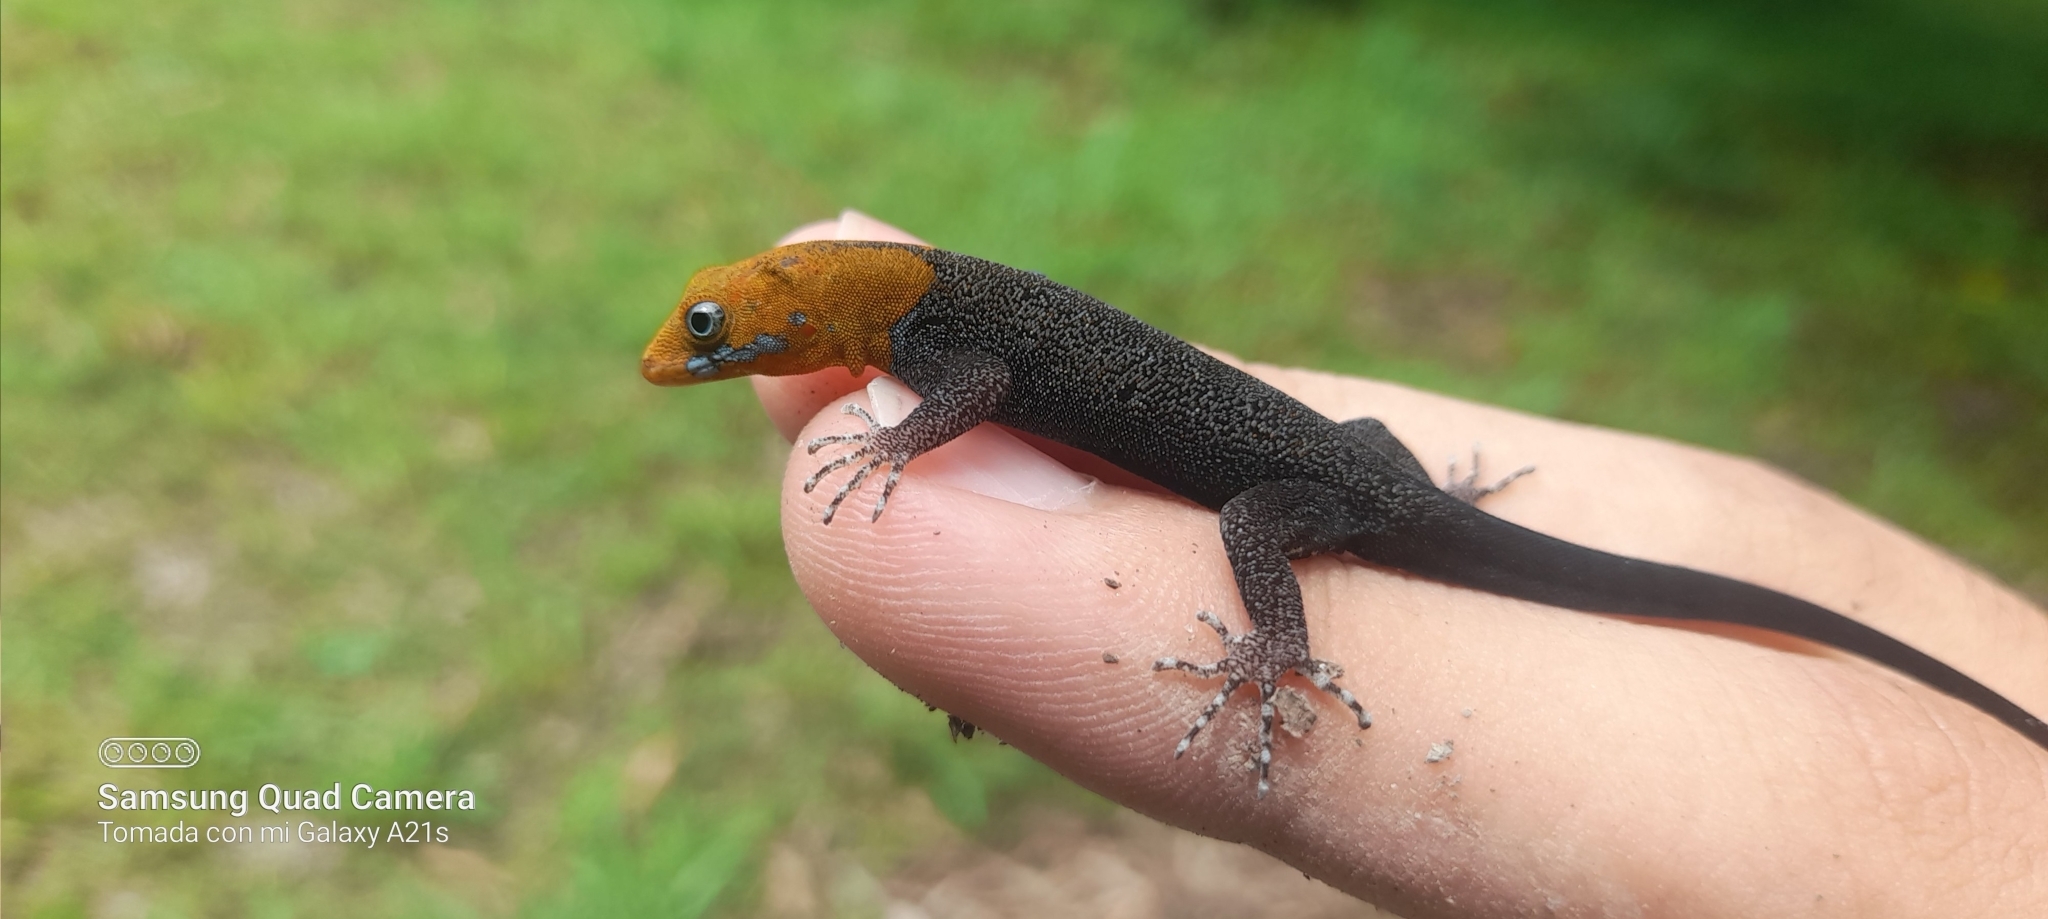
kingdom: Animalia
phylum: Chordata
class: Squamata
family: Sphaerodactylidae
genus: Gonatodes
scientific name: Gonatodes albogularis
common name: Yellow-headed gecko
